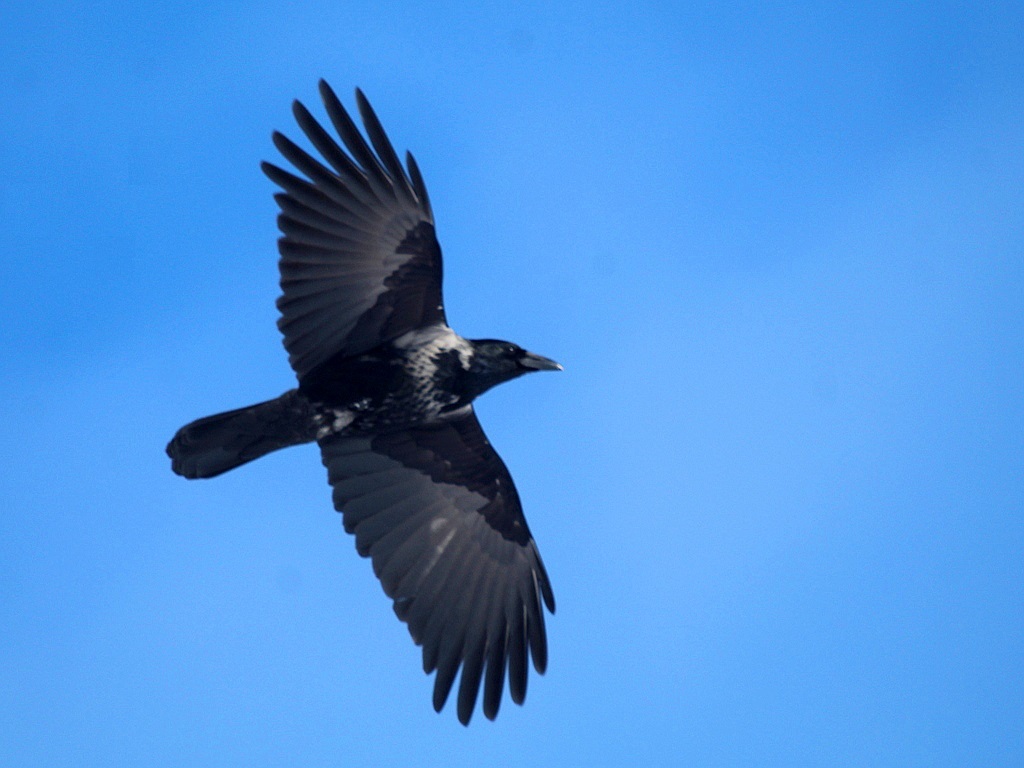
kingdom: Animalia
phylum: Chordata
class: Aves
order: Passeriformes
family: Corvidae
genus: Corvus
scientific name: Corvus
